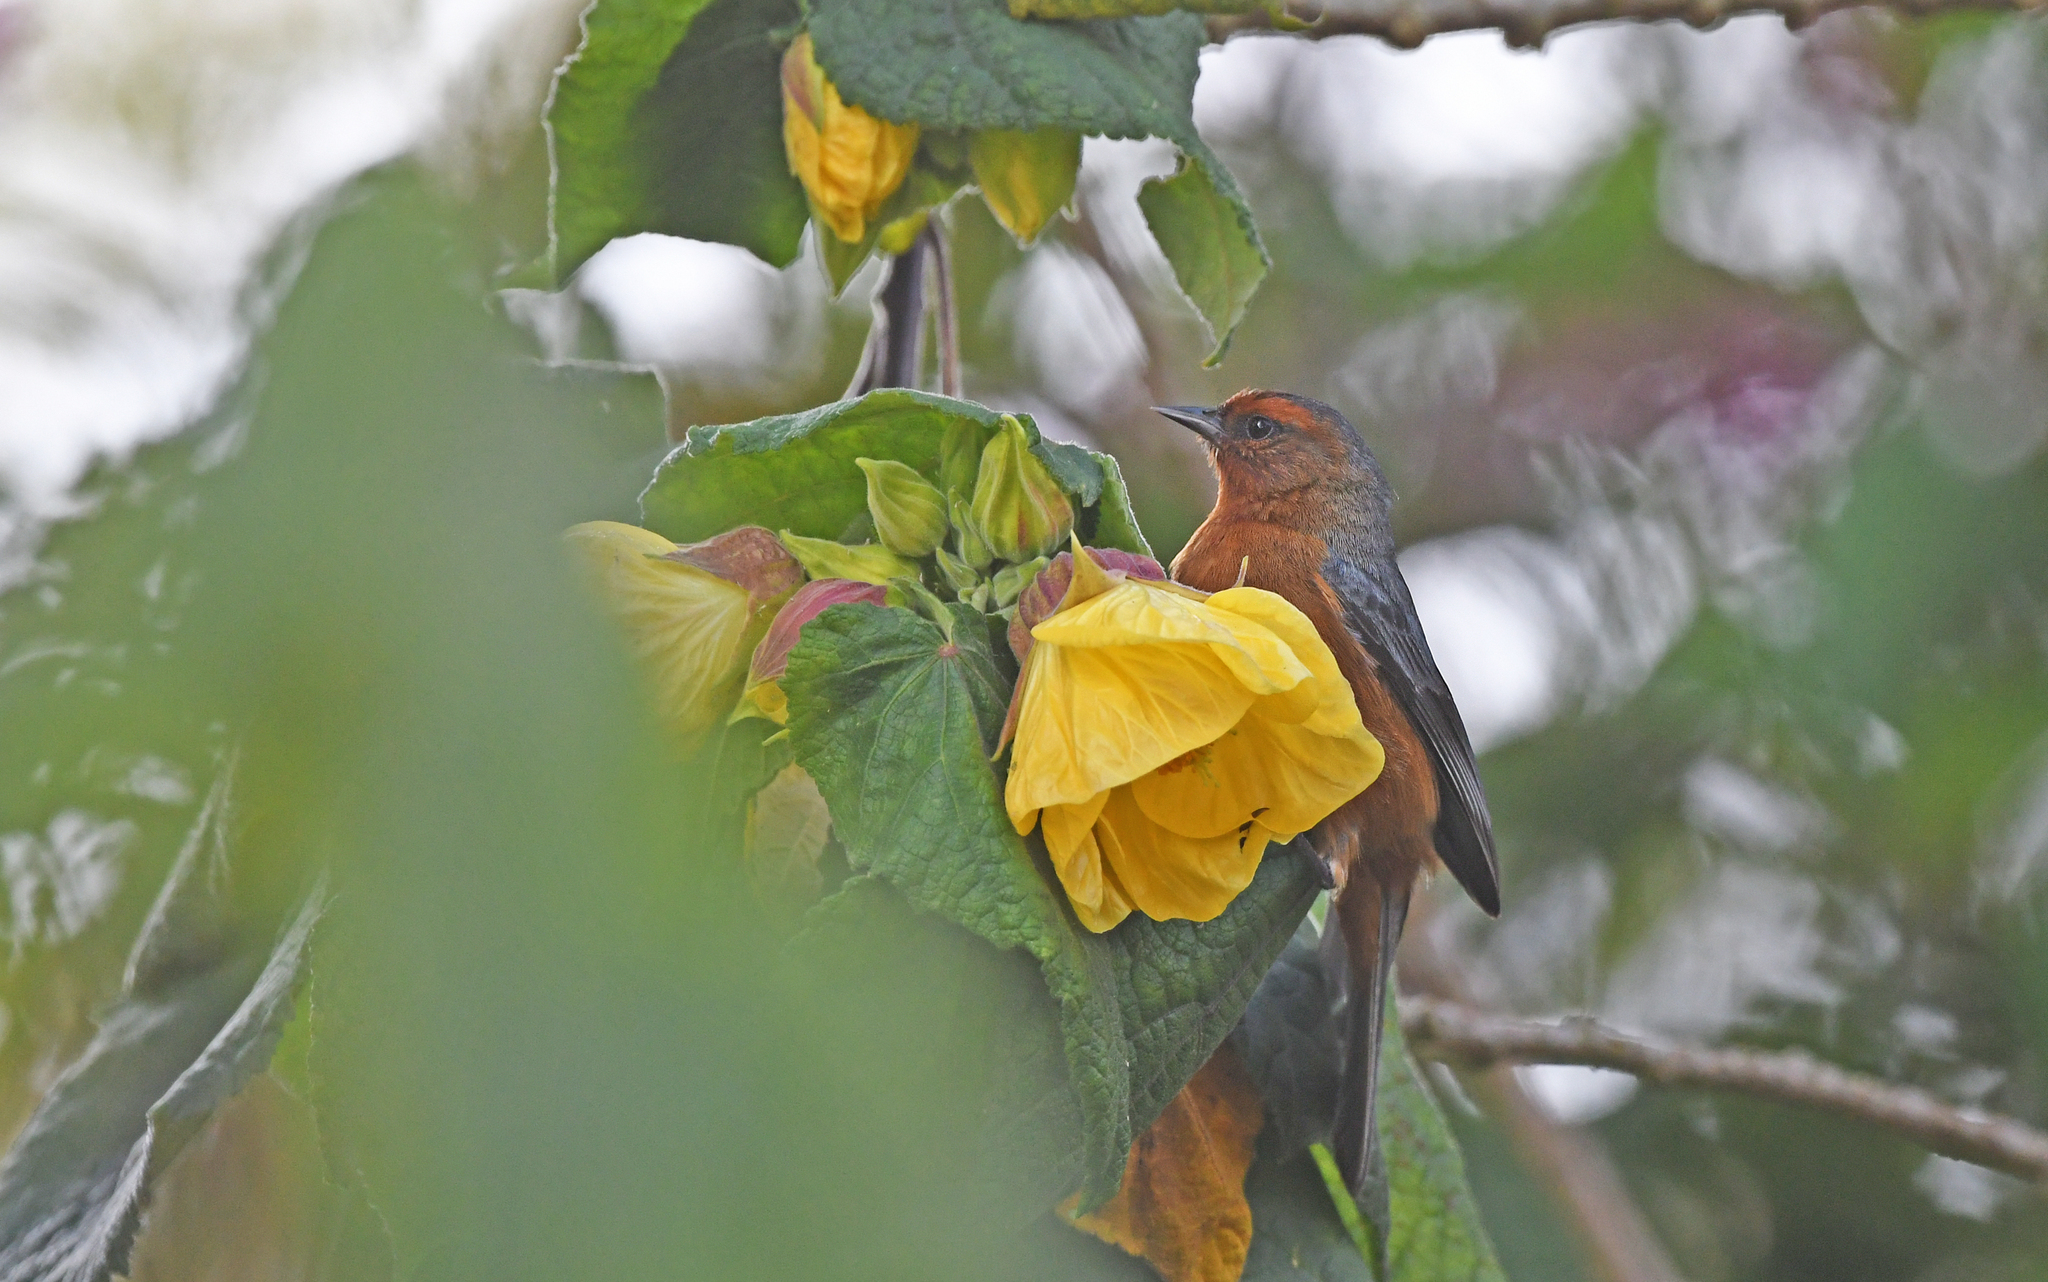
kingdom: Animalia
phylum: Chordata
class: Aves
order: Passeriformes
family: Thraupidae
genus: Conirostrum
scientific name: Conirostrum rufum
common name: Rufous-browed conebill
